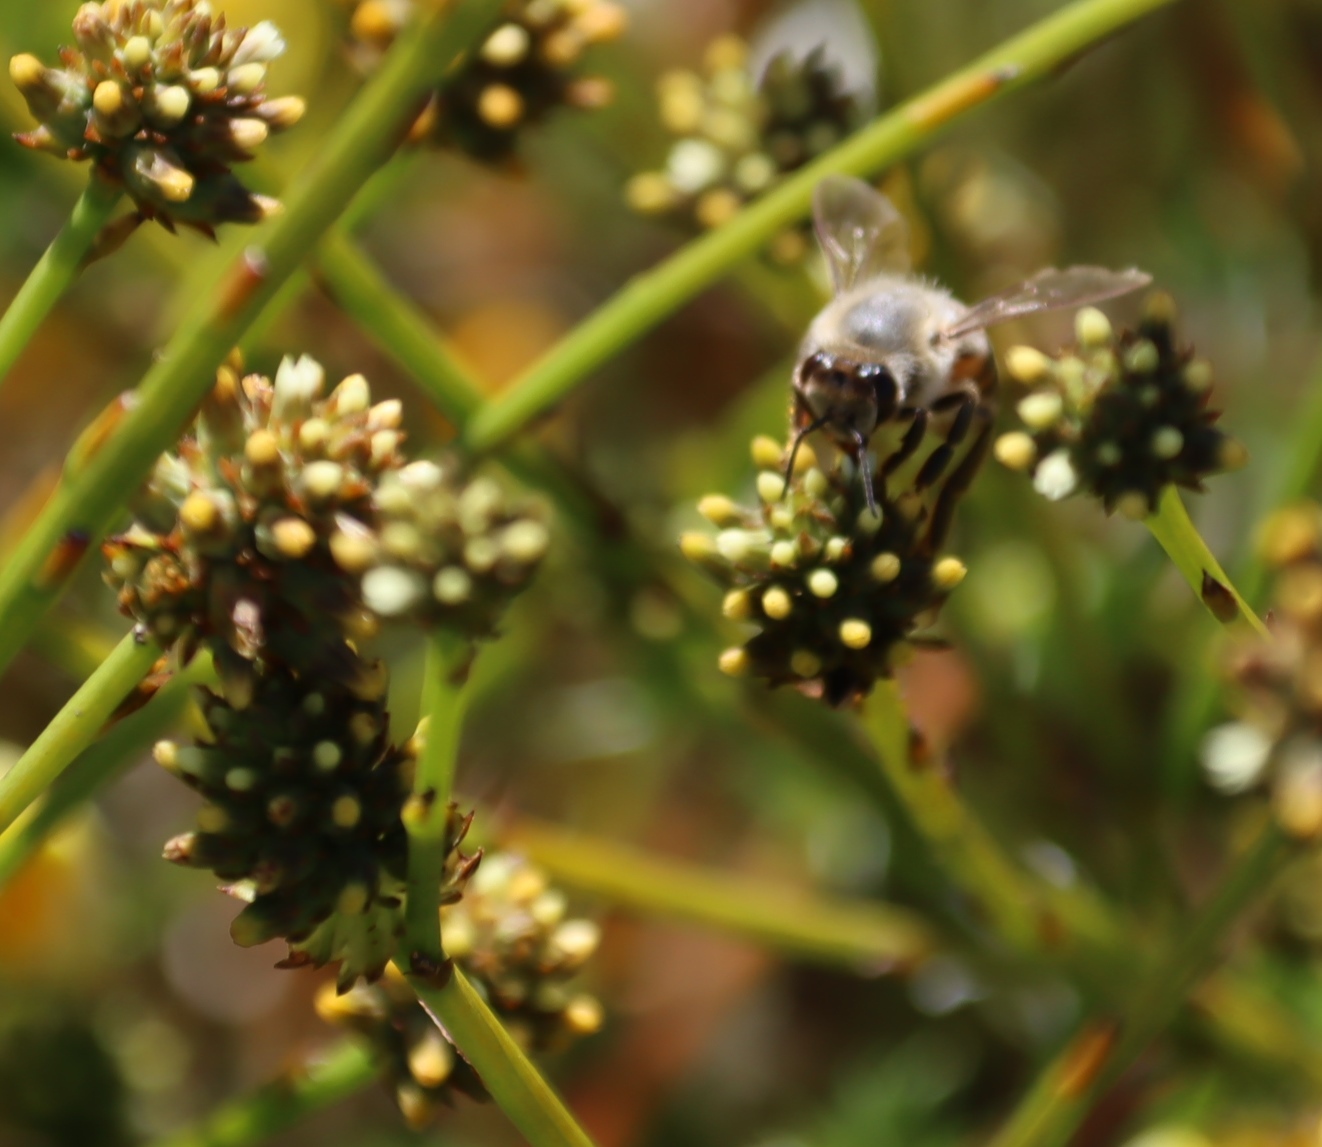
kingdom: Animalia
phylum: Arthropoda
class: Insecta
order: Hymenoptera
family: Apidae
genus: Apis
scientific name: Apis mellifera
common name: Honey bee
